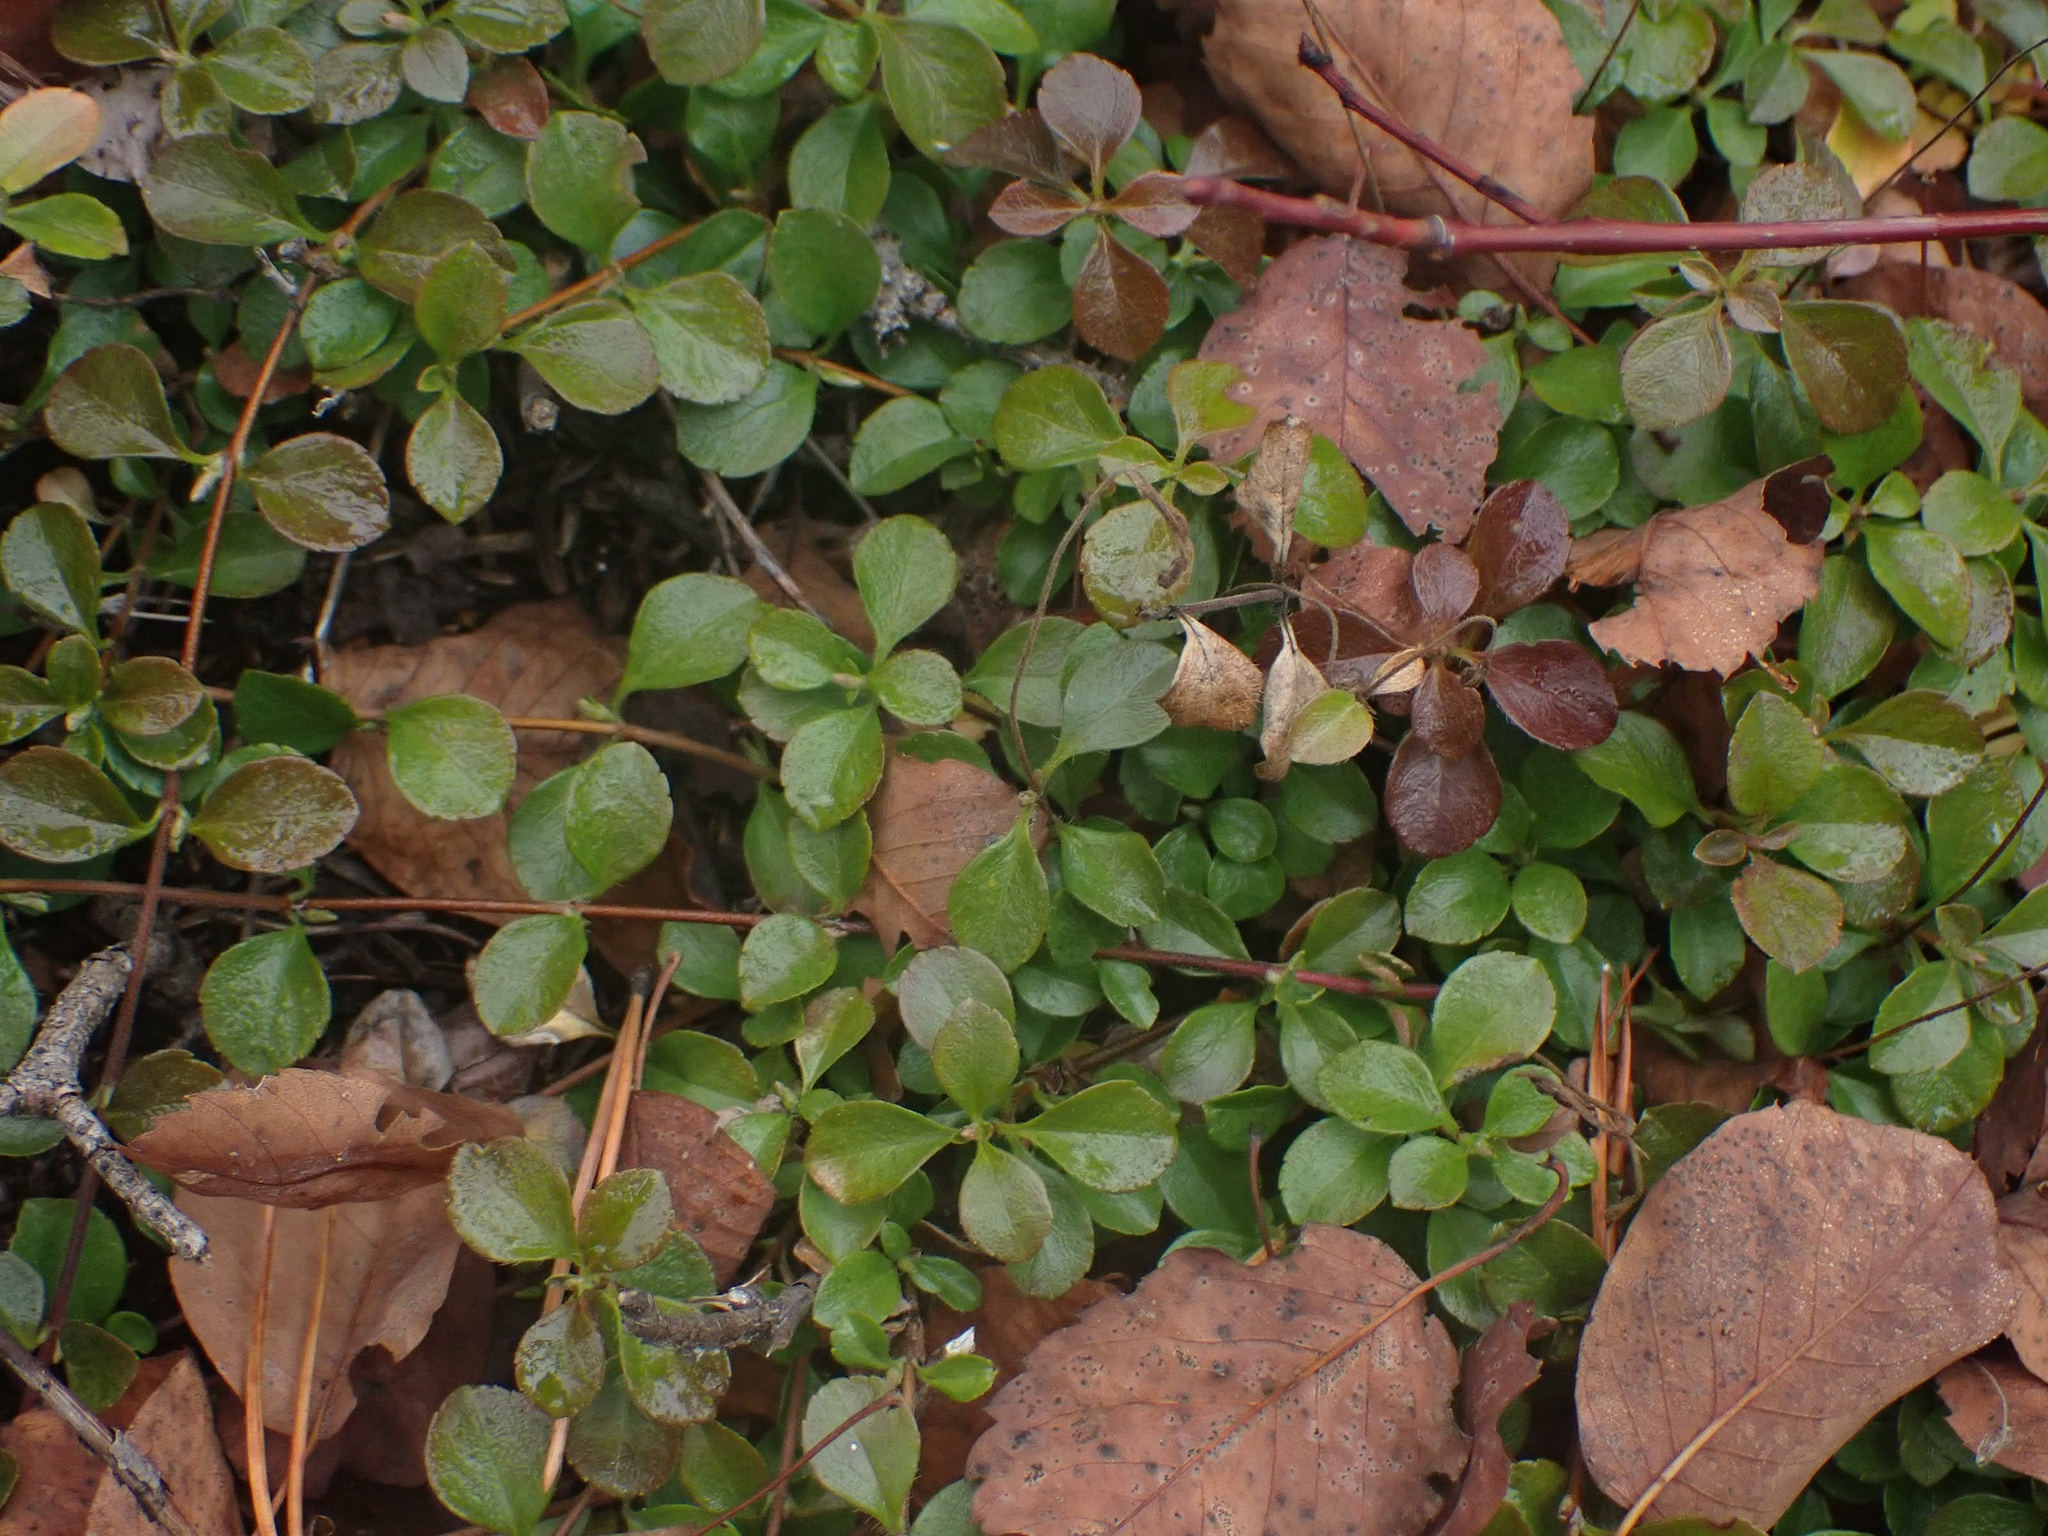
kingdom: Plantae
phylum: Tracheophyta
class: Magnoliopsida
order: Dipsacales
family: Caprifoliaceae
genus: Linnaea
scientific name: Linnaea borealis
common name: Twinflower
